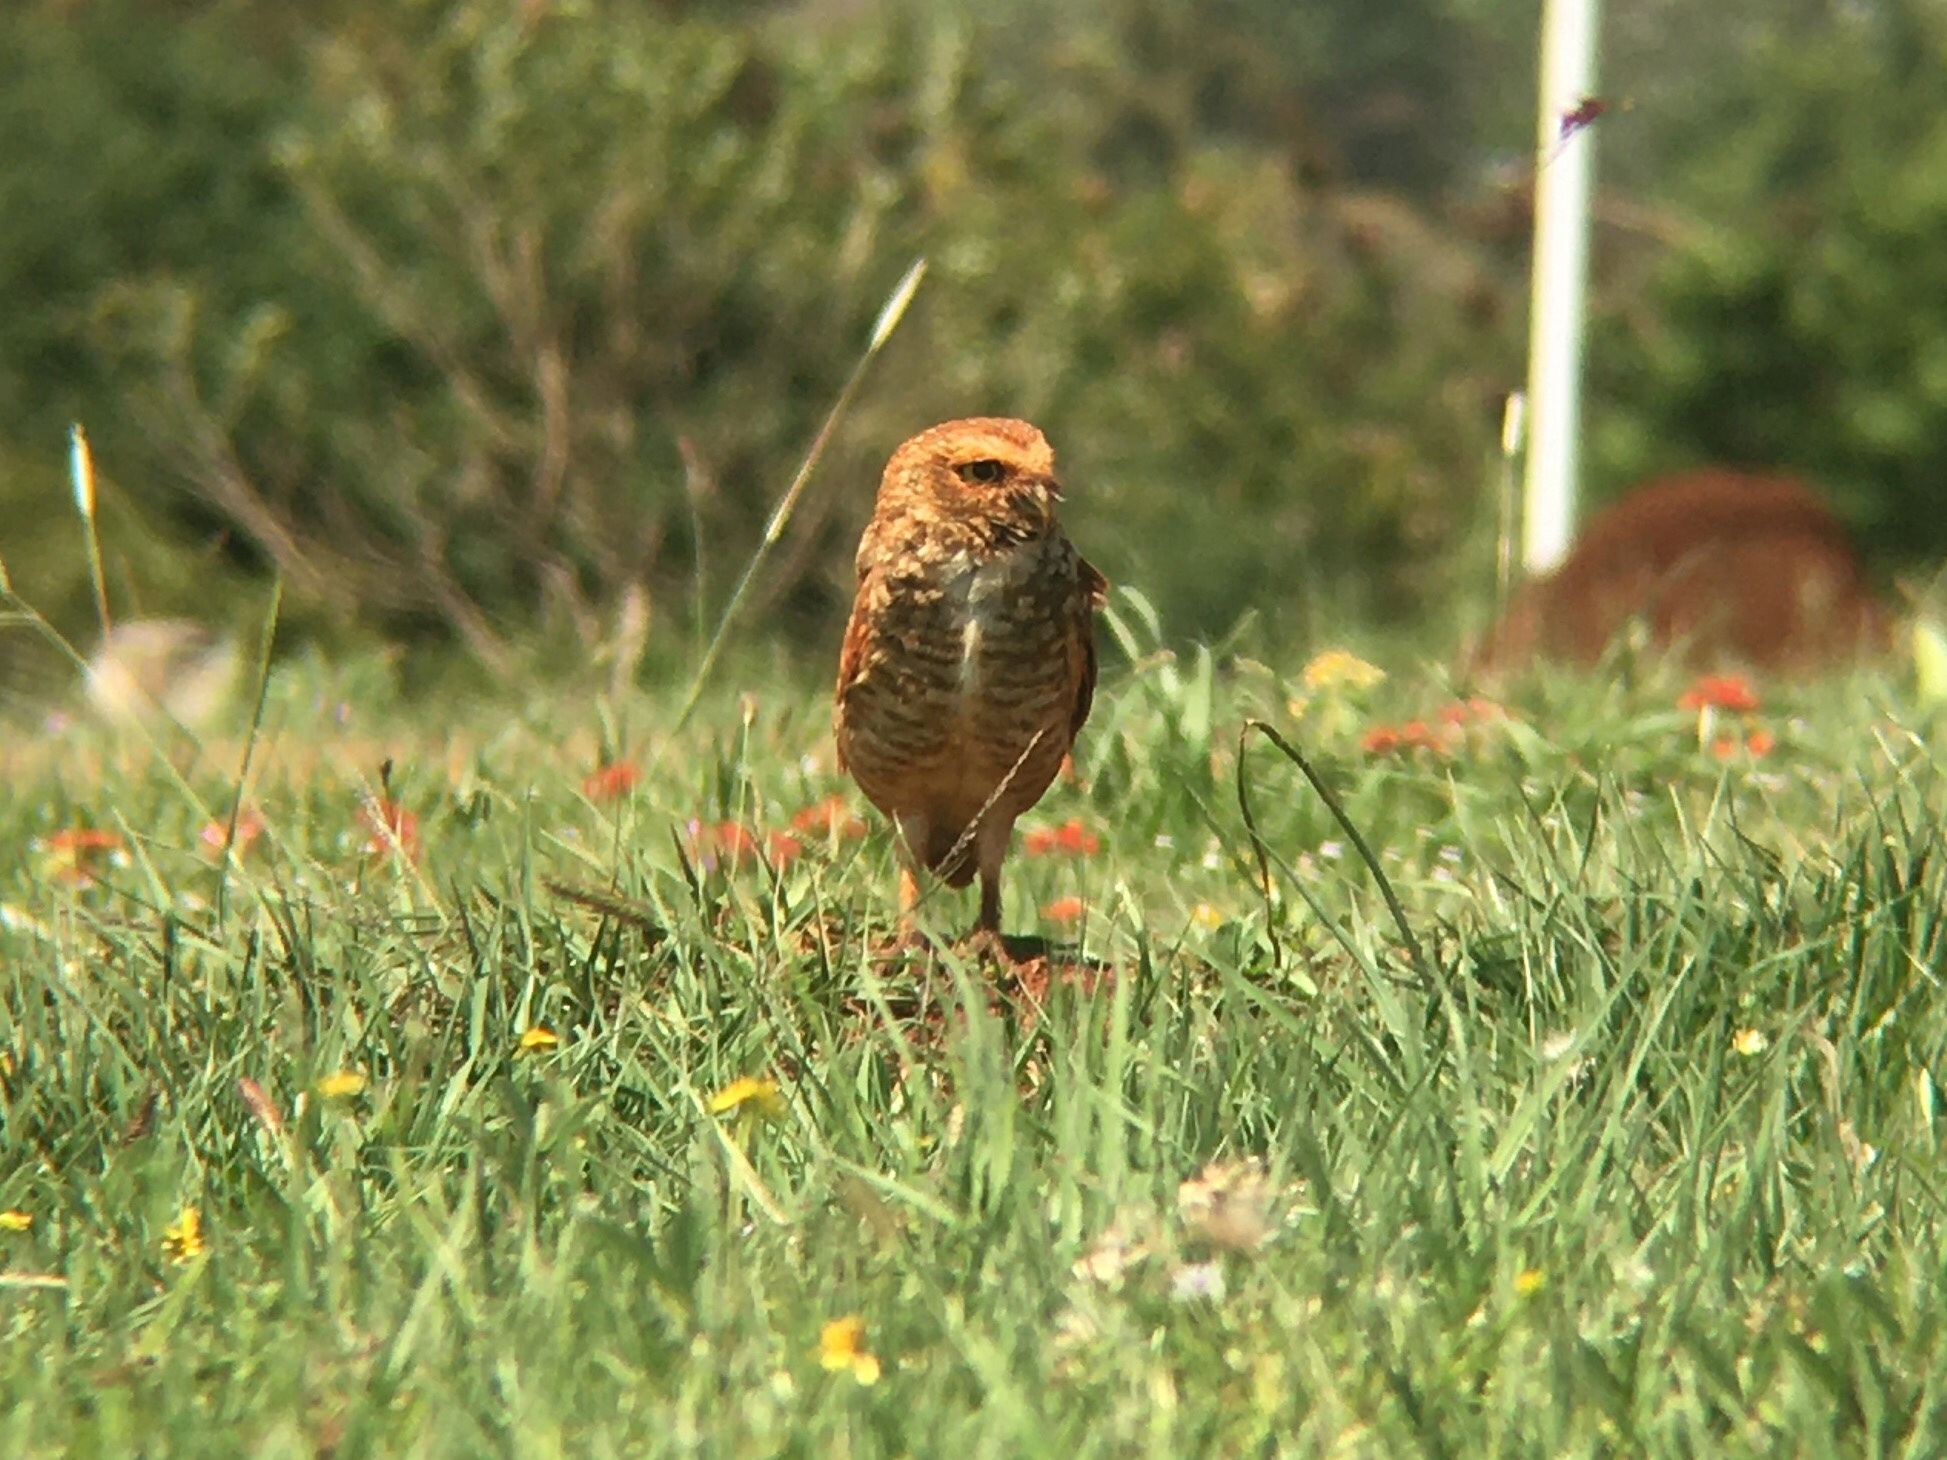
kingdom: Animalia
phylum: Chordata
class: Aves
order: Strigiformes
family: Strigidae
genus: Athene
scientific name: Athene cunicularia
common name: Burrowing owl
